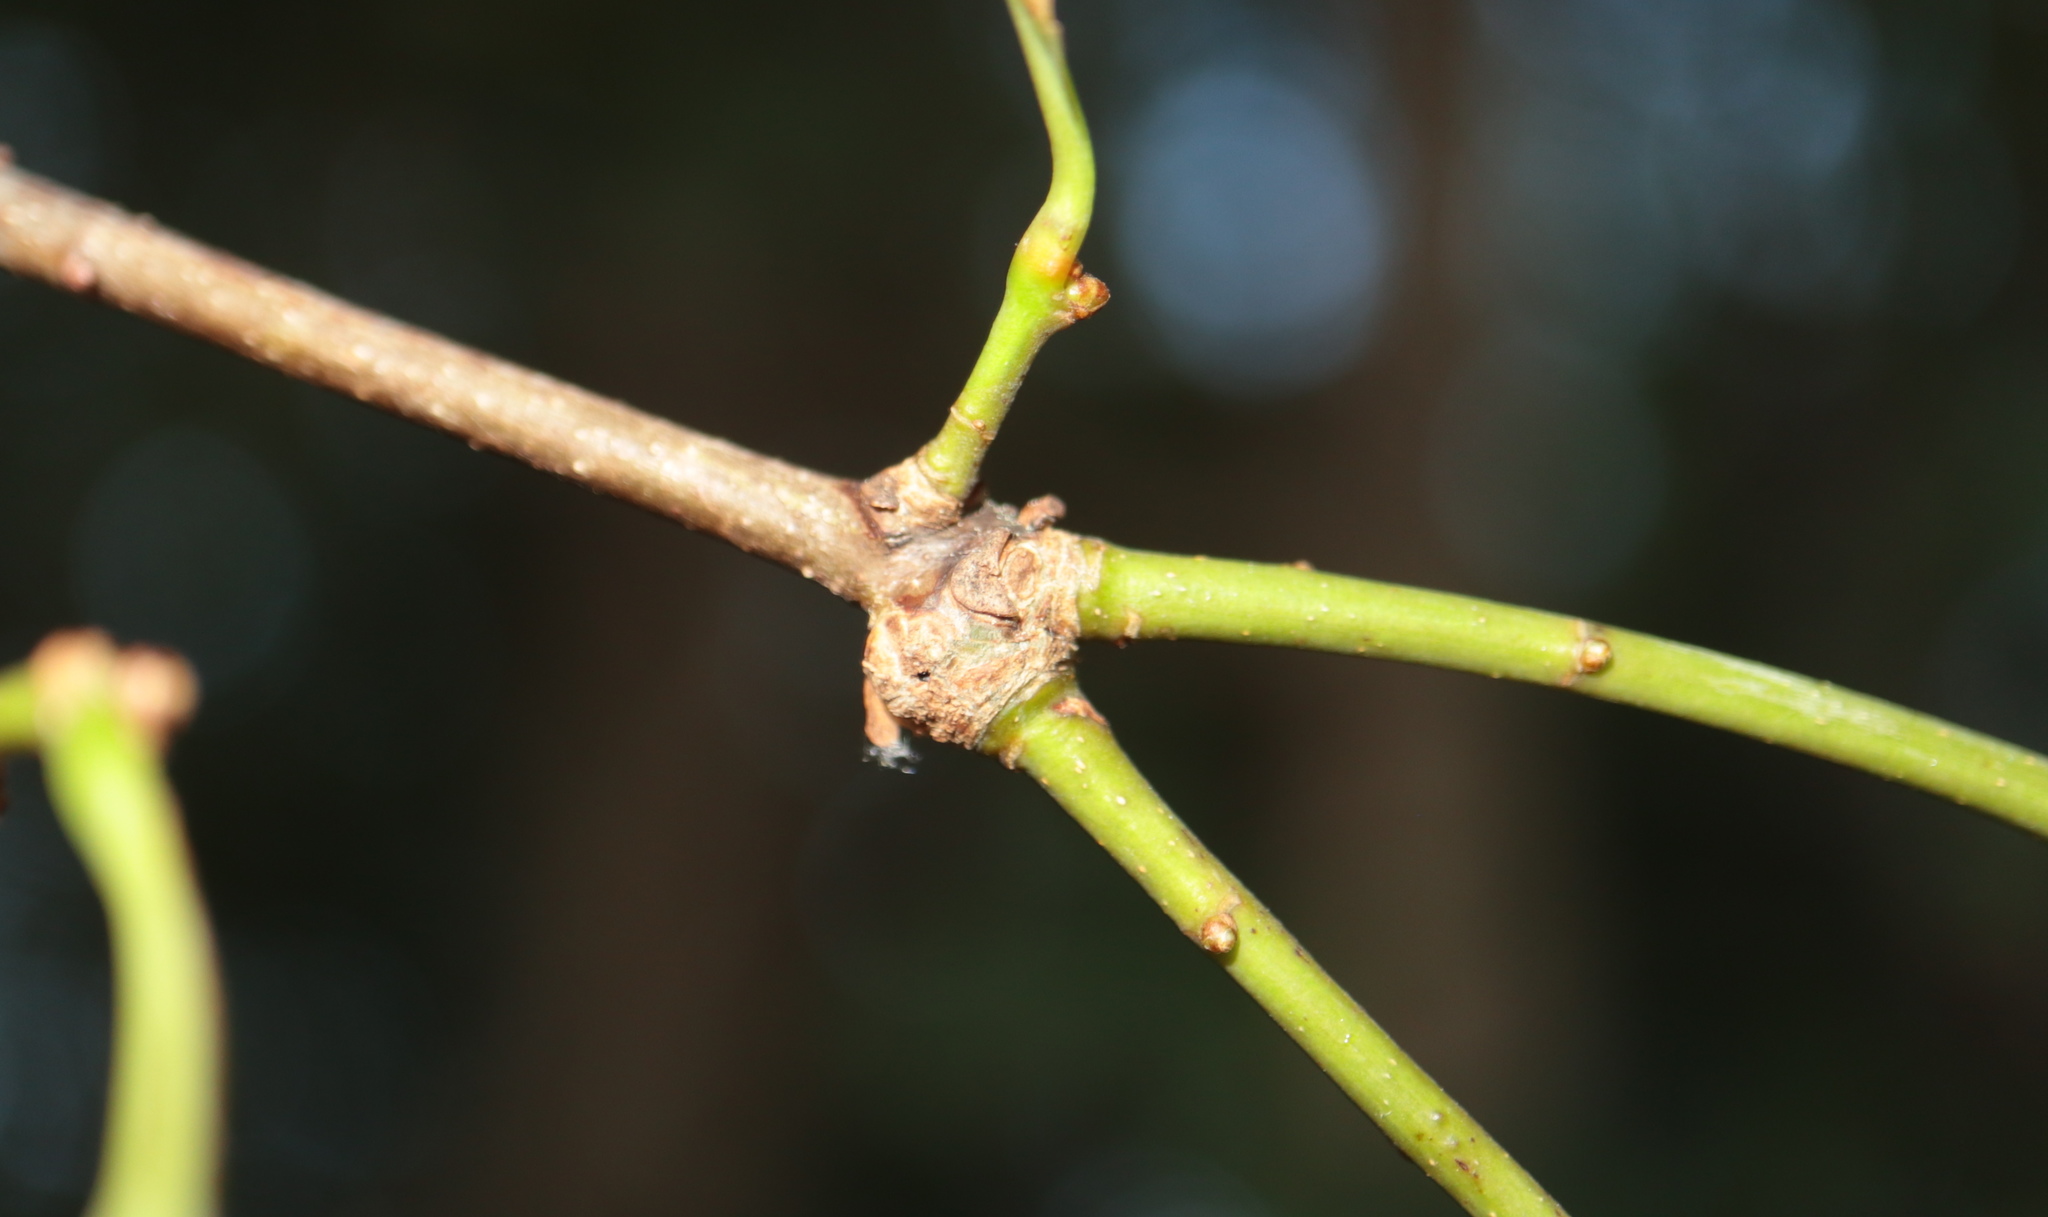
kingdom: Animalia
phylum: Arthropoda
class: Insecta
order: Hymenoptera
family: Cynipidae
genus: Loxaulus
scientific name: Loxaulus
